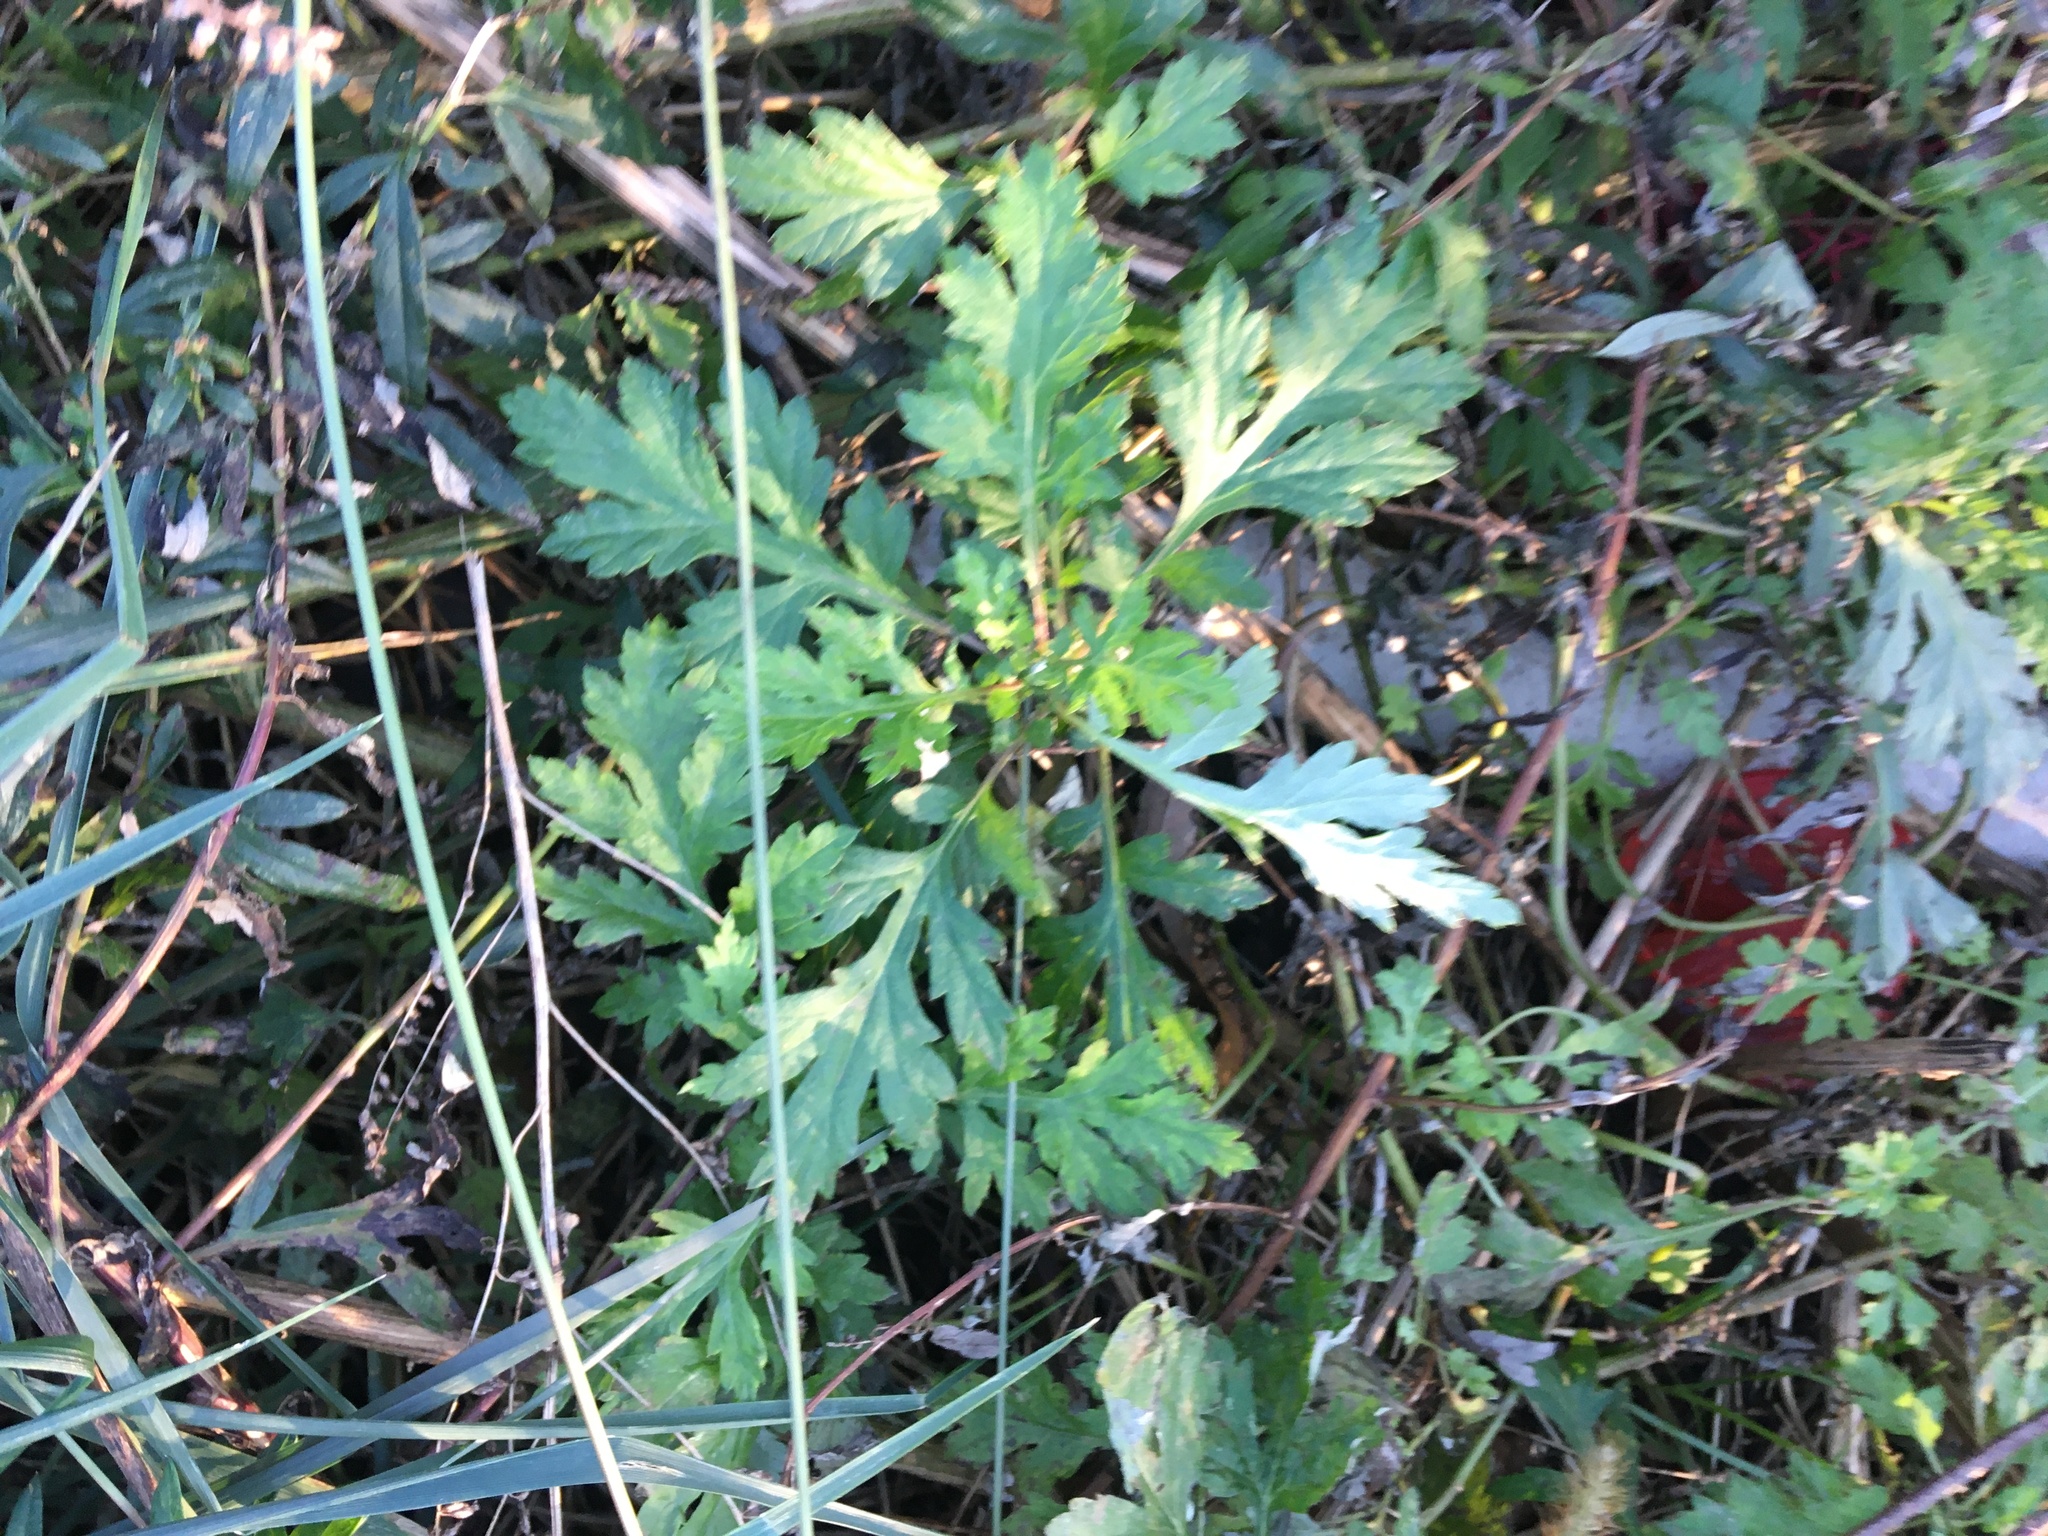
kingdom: Plantae
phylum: Tracheophyta
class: Magnoliopsida
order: Asterales
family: Asteraceae
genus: Artemisia
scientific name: Artemisia vulgaris
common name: Mugwort
